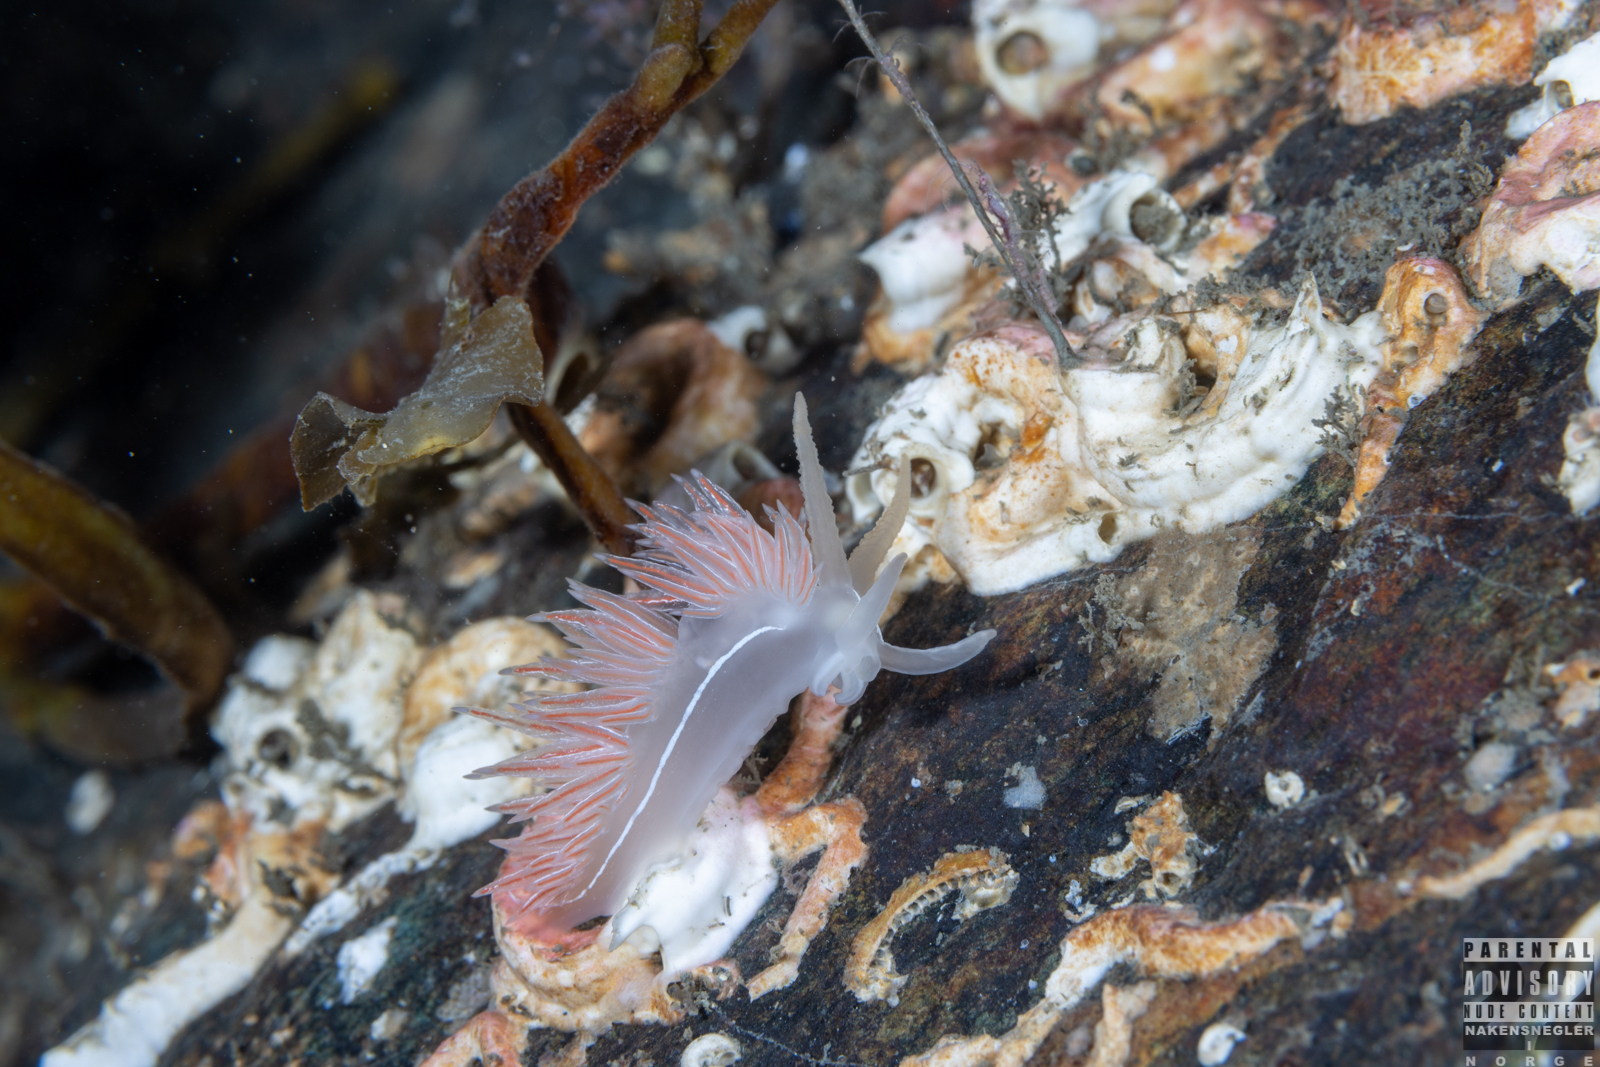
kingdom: Animalia
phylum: Mollusca
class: Gastropoda
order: Nudibranchia
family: Coryphellidae
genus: Coryphella
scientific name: Coryphella chriskaugei
